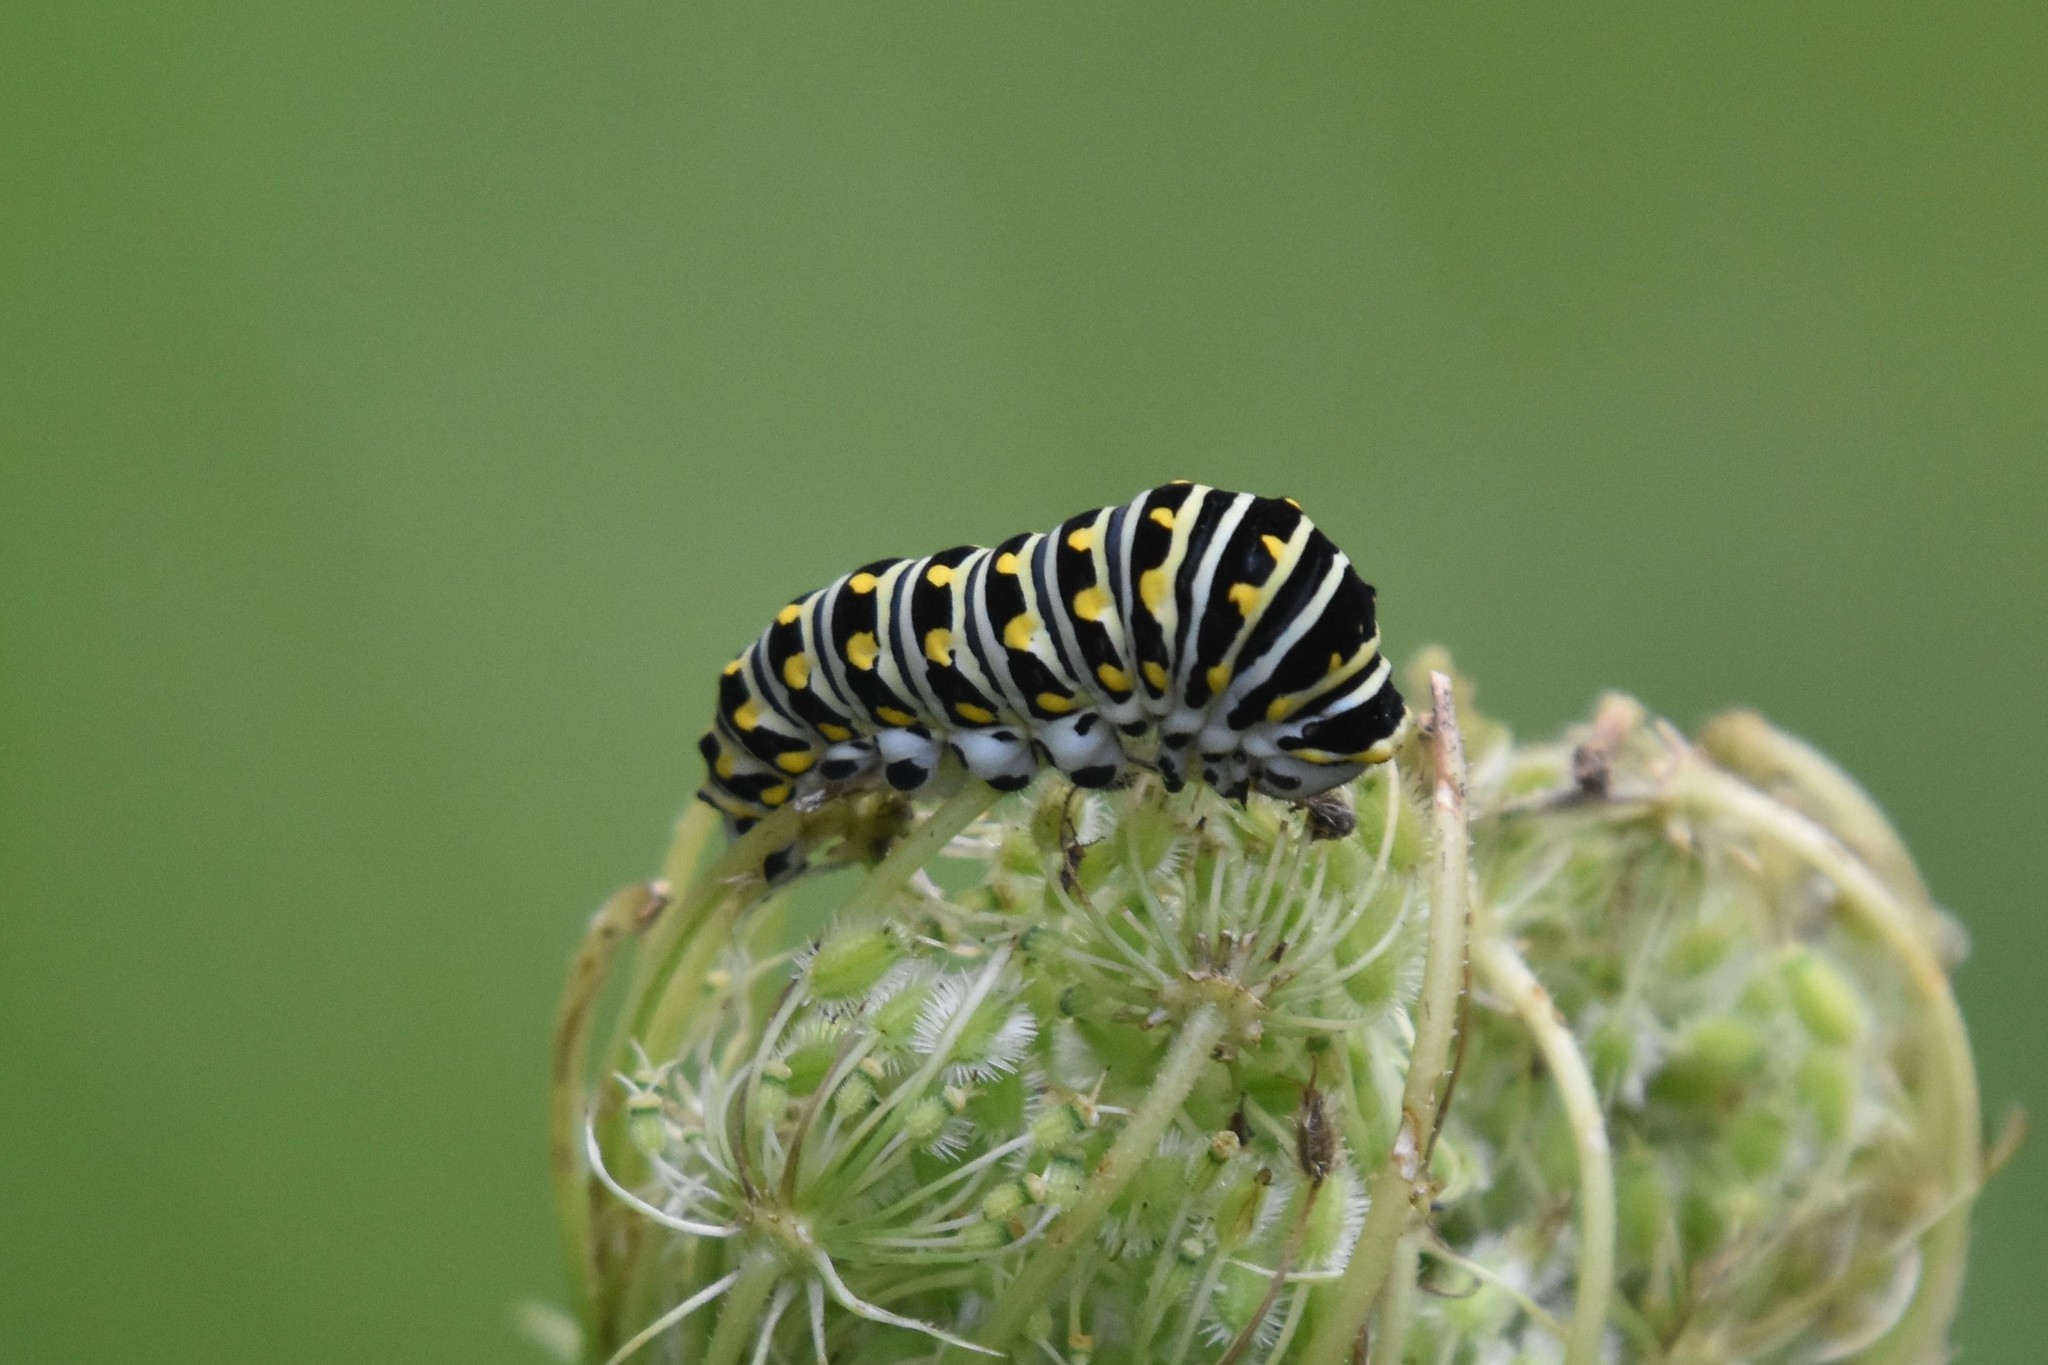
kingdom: Animalia
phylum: Arthropoda
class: Insecta
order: Lepidoptera
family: Papilionidae
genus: Papilio
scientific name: Papilio polyxenes
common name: Black swallowtail
